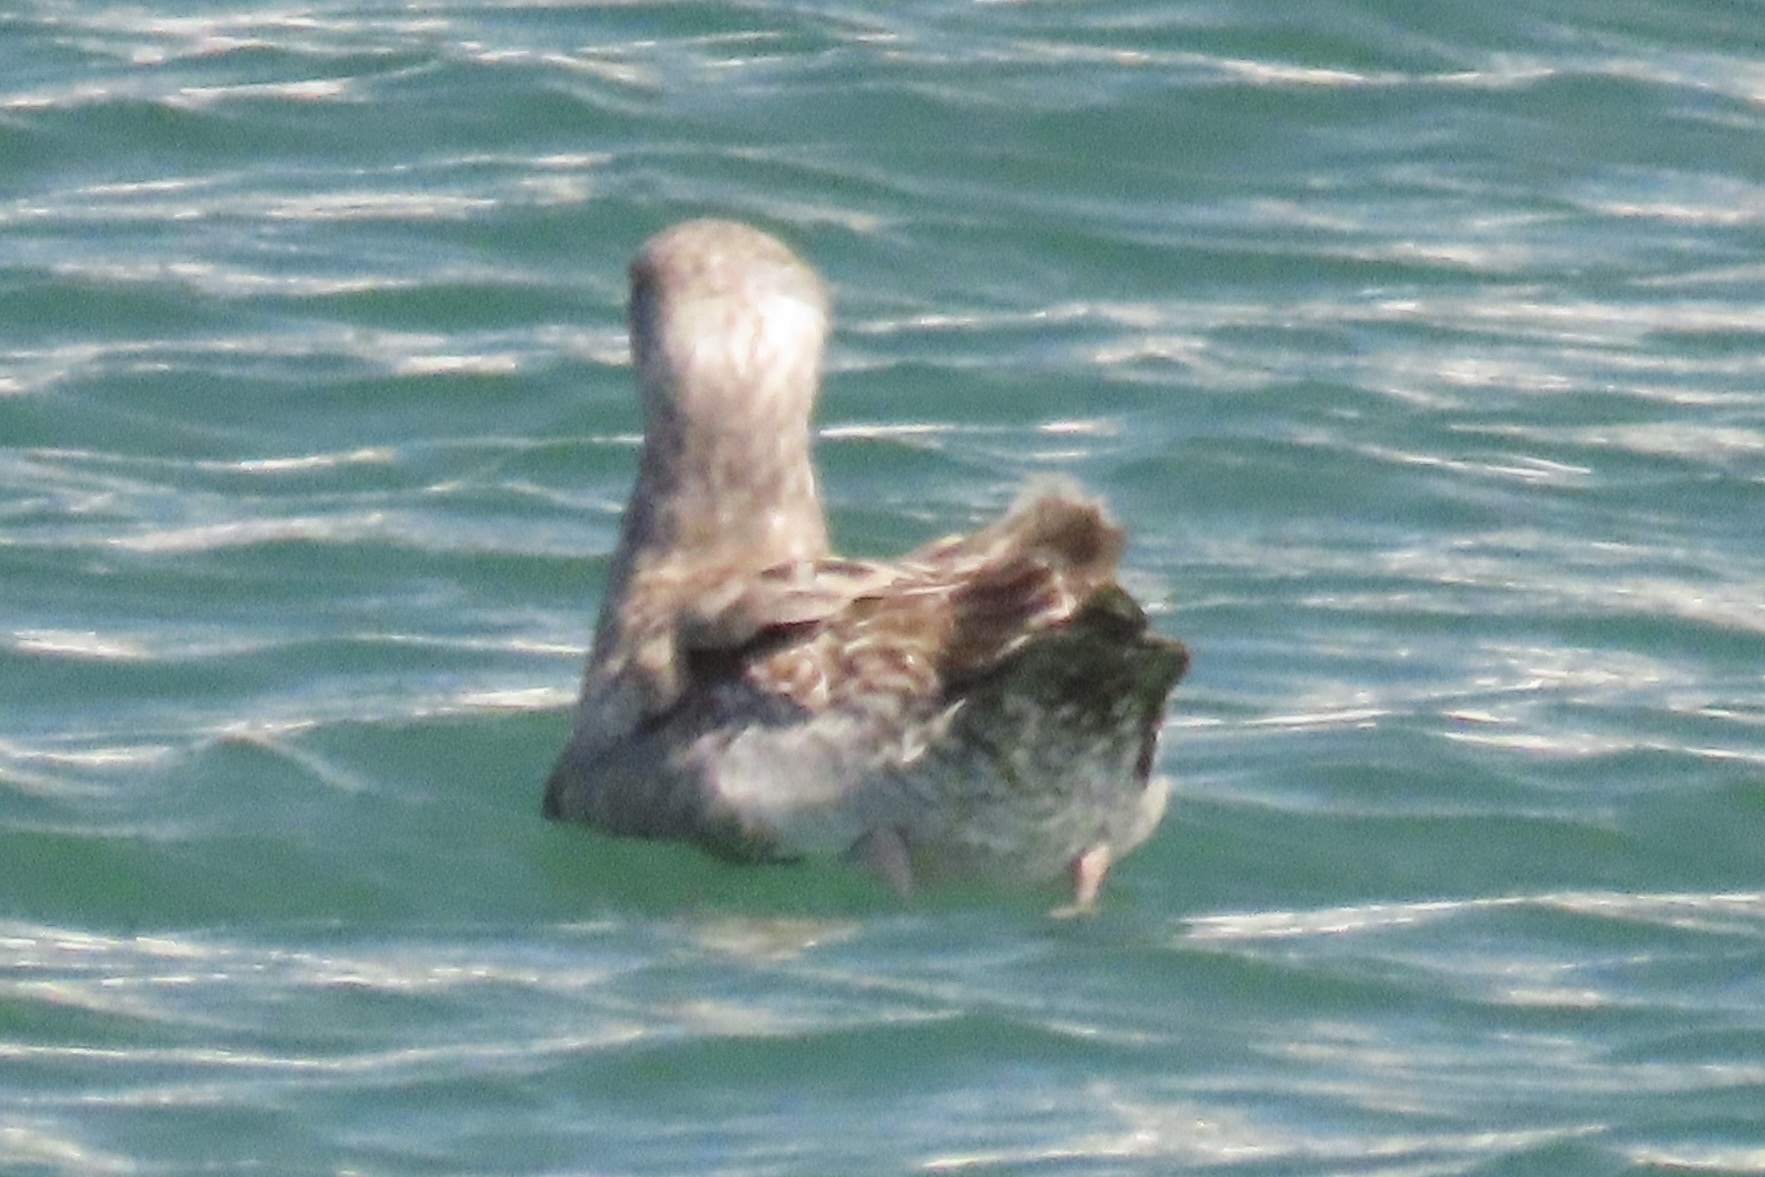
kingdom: Animalia
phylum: Chordata
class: Aves
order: Charadriiformes
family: Laridae
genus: Larus
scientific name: Larus occidentalis
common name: Western gull
